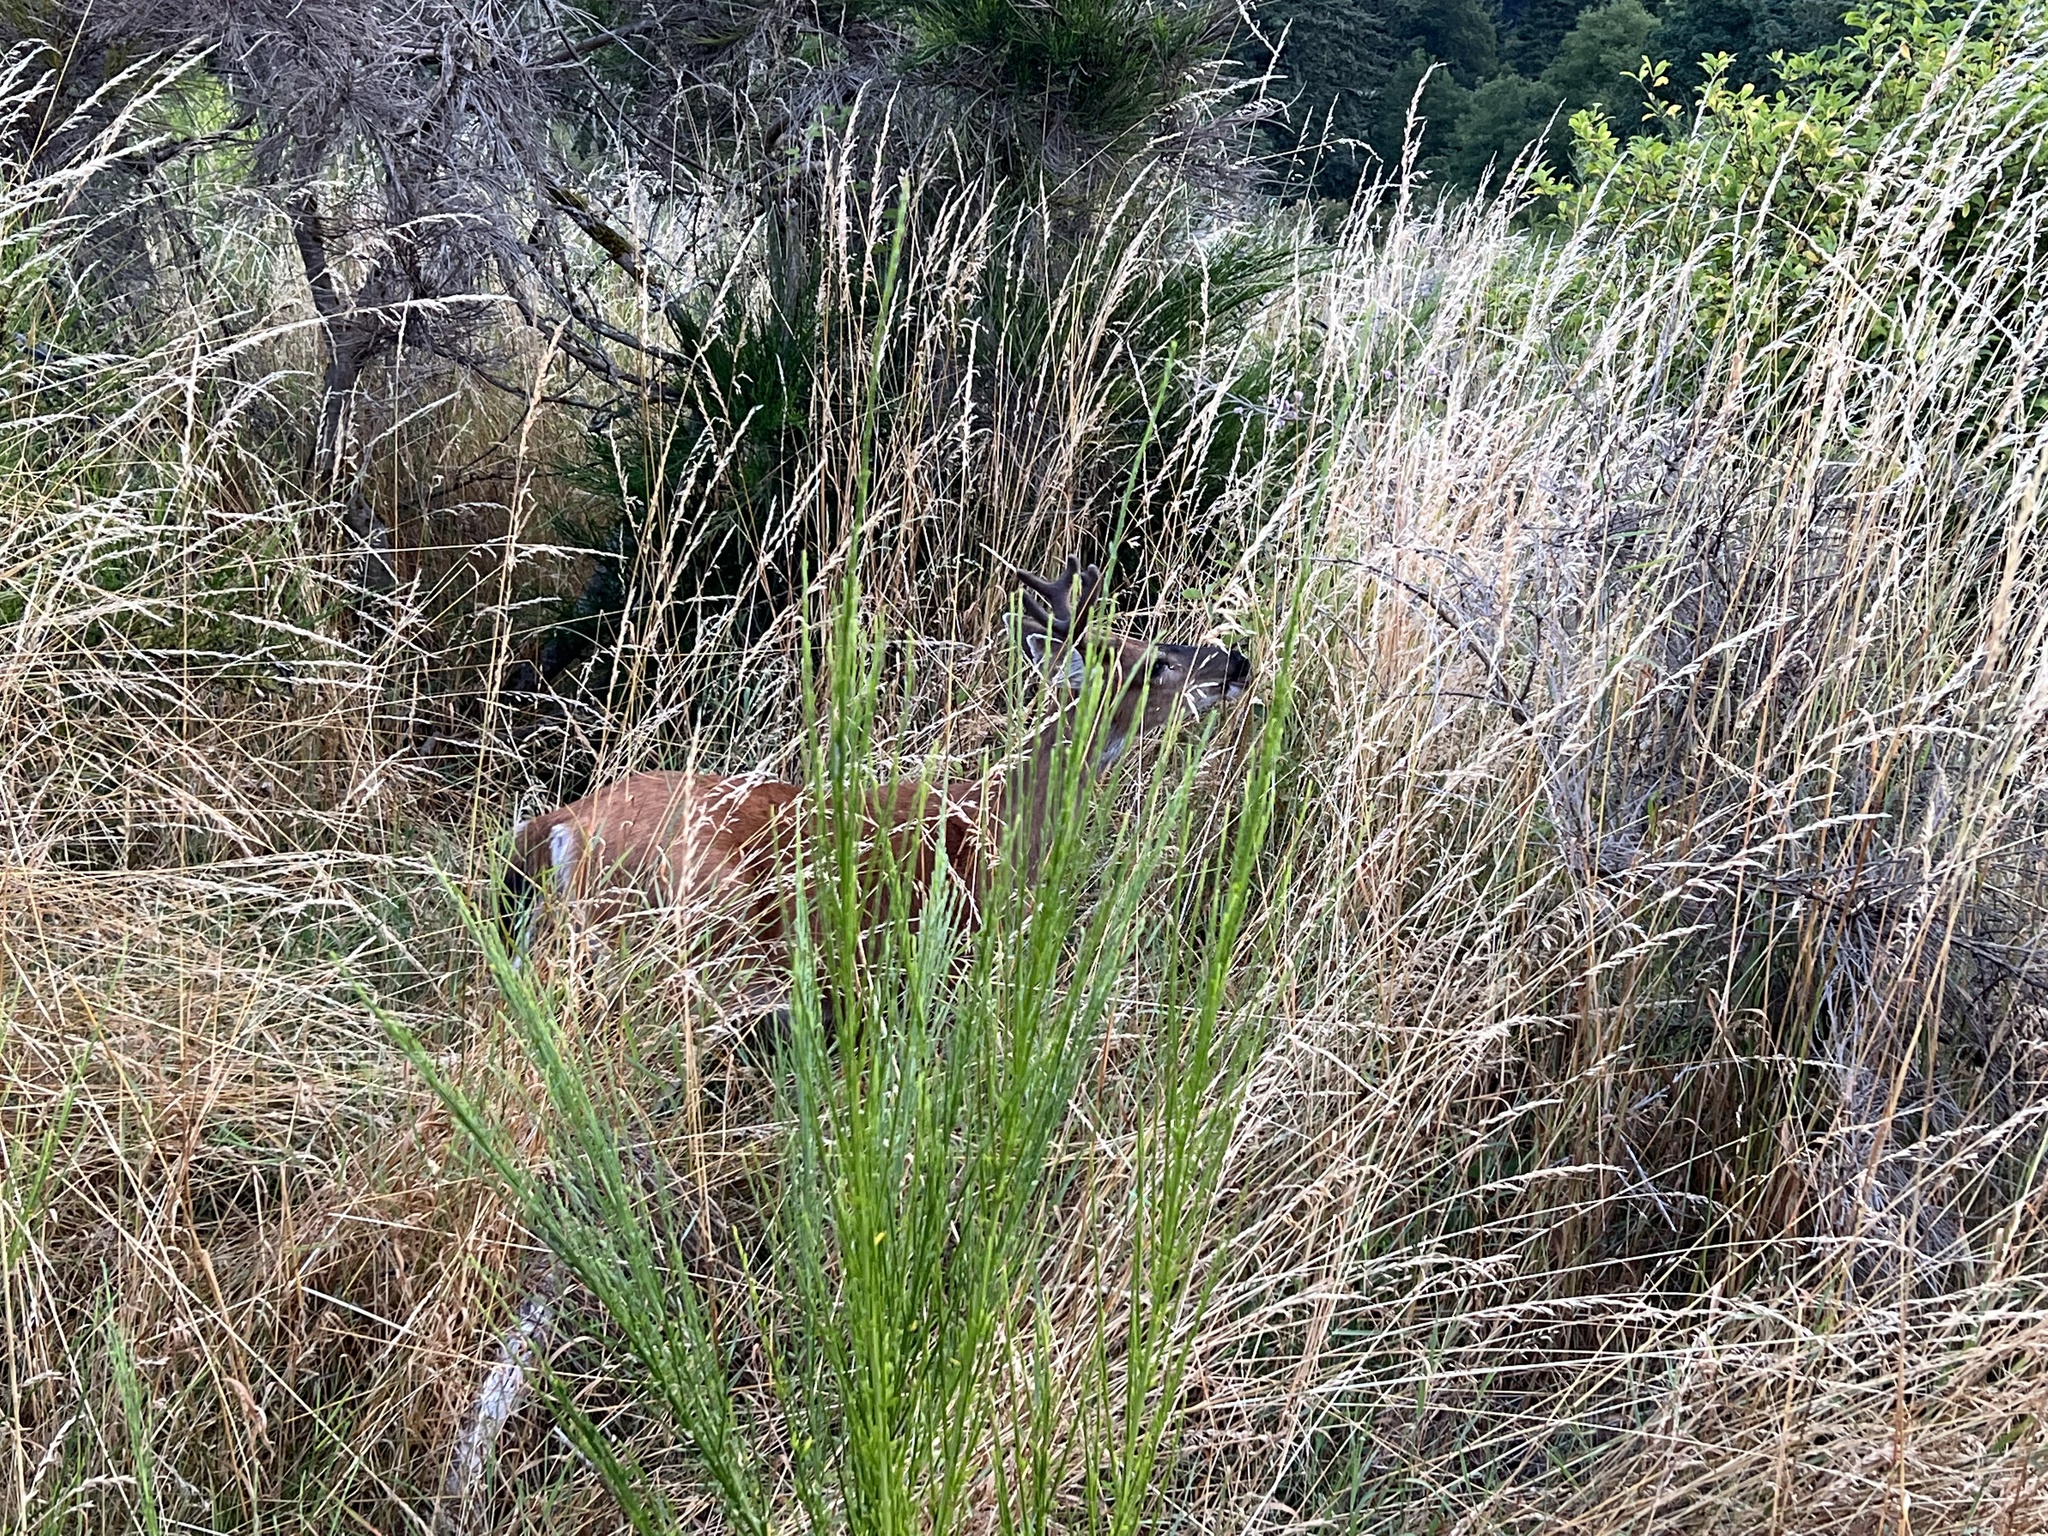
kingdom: Animalia
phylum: Chordata
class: Mammalia
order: Artiodactyla
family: Cervidae
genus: Odocoileus
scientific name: Odocoileus hemionus
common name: Mule deer
